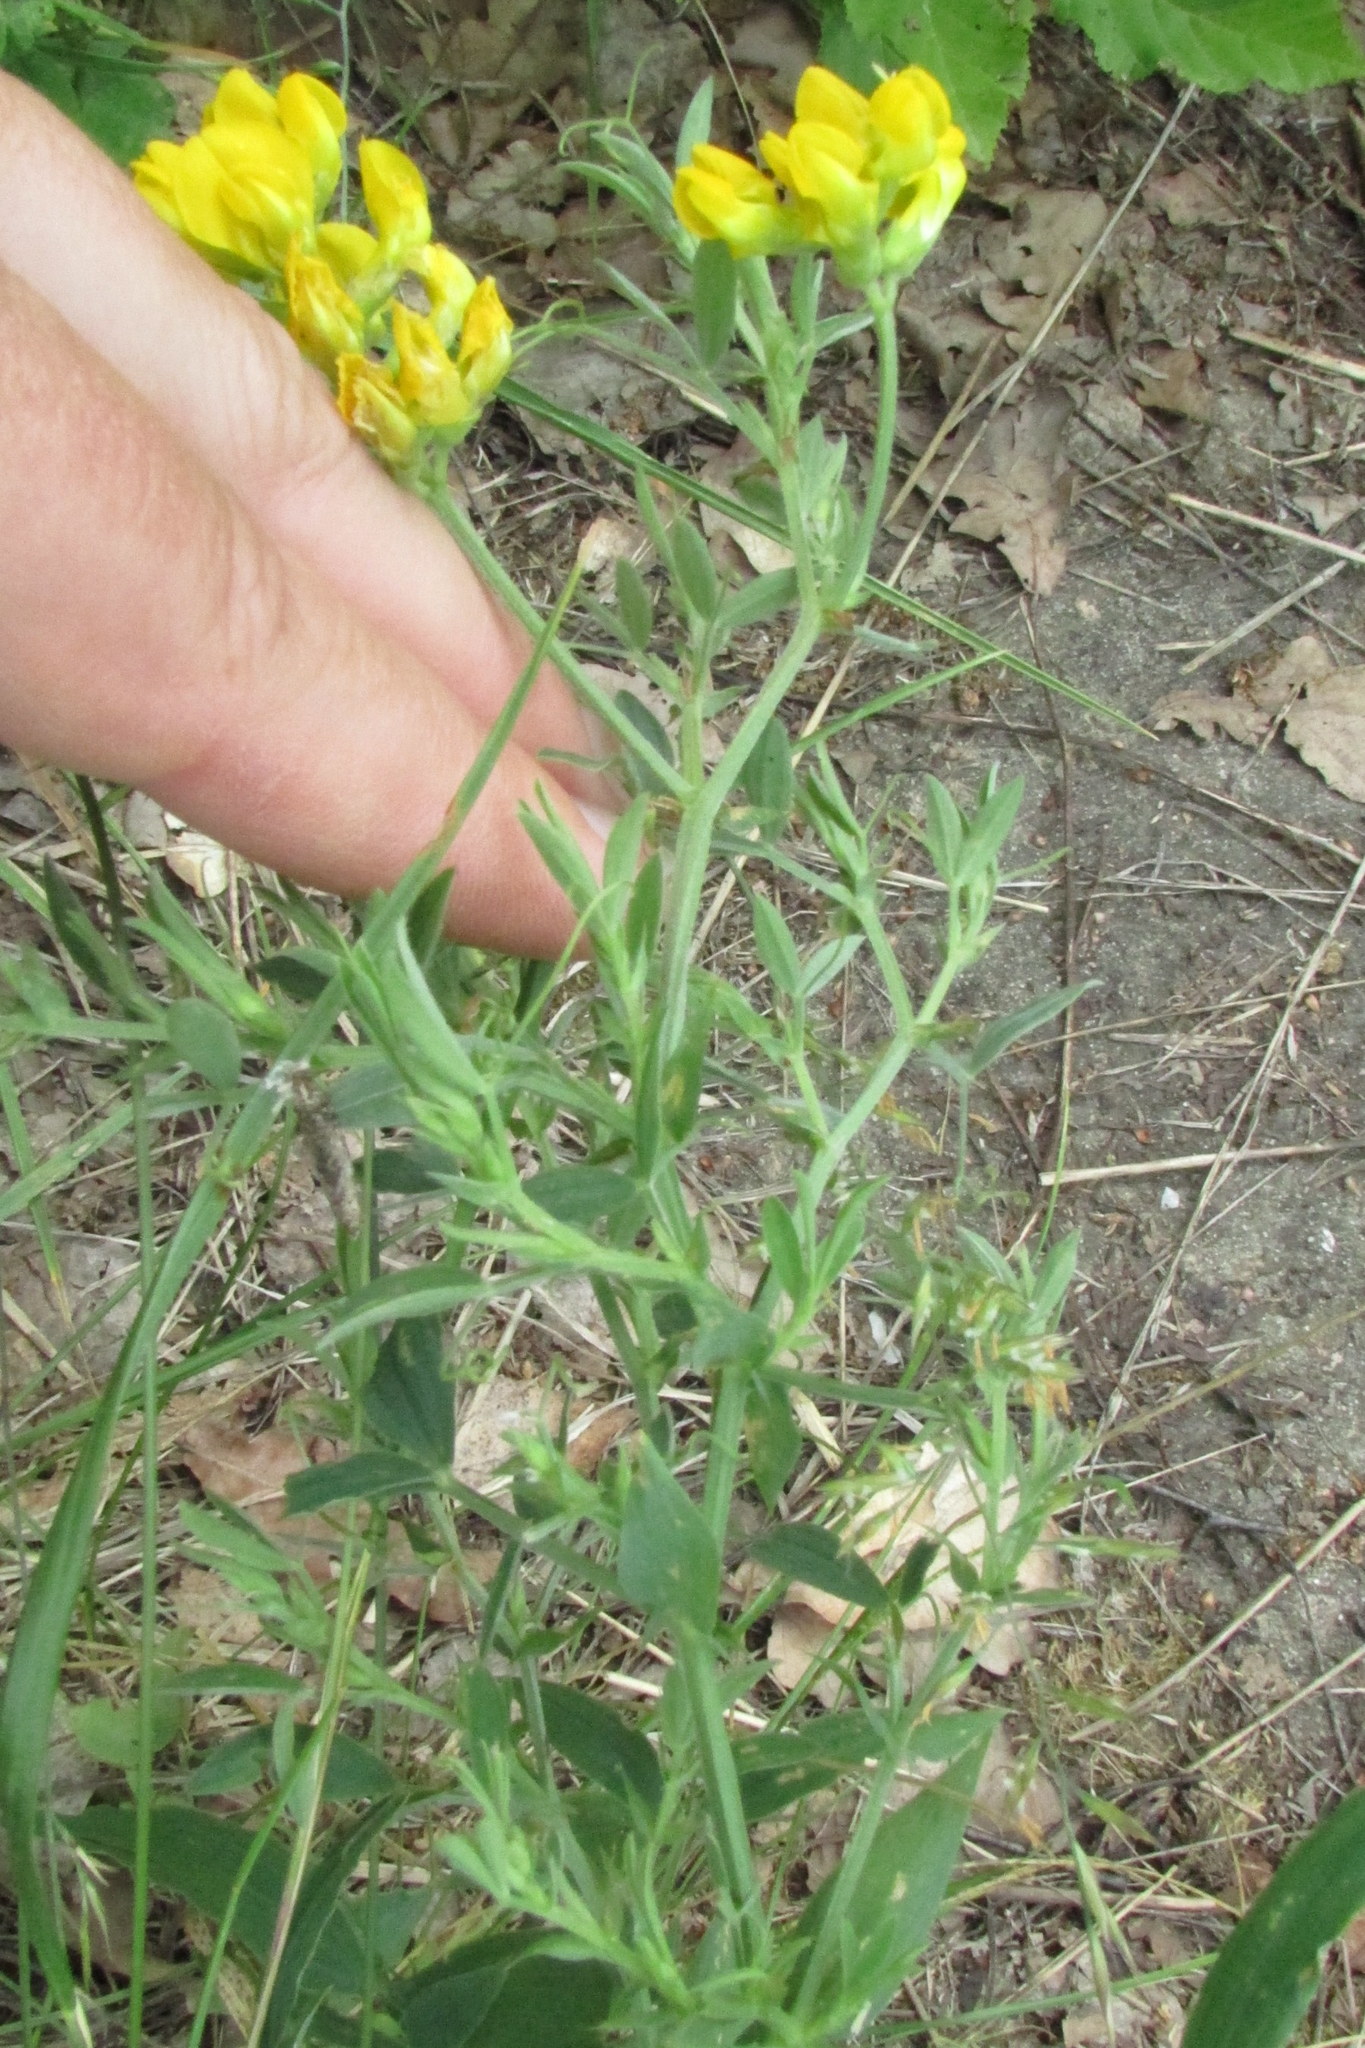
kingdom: Plantae
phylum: Tracheophyta
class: Magnoliopsida
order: Fabales
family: Fabaceae
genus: Lathyrus
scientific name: Lathyrus pratensis
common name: Meadow vetchling
